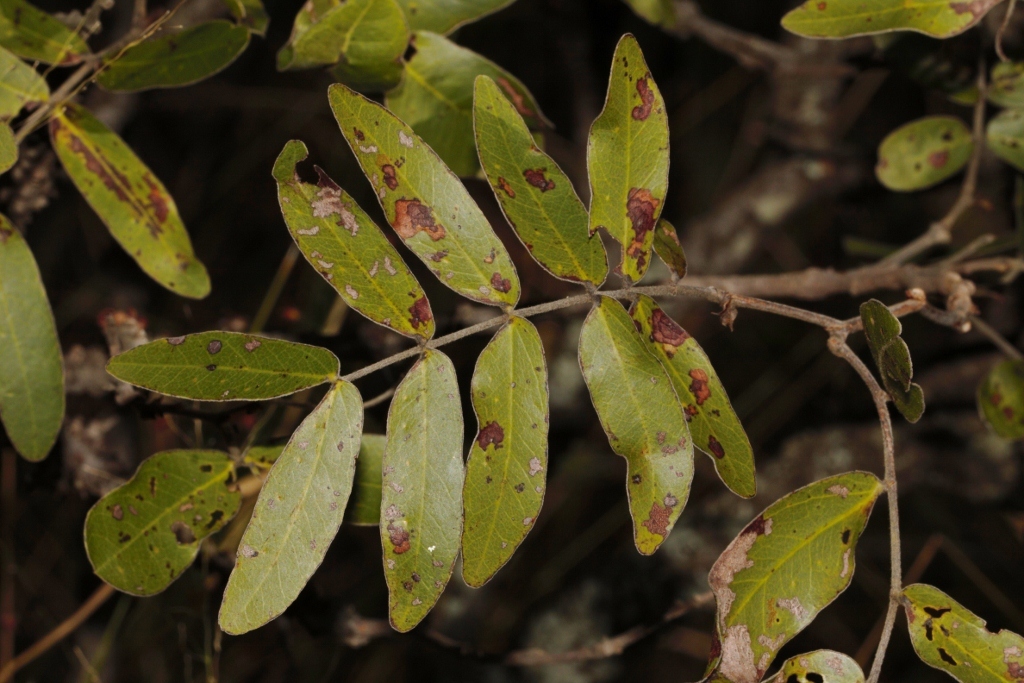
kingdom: Plantae
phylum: Tracheophyta
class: Magnoliopsida
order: Fabales
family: Fabaceae
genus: Julbernardia
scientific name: Julbernardia globiflora
